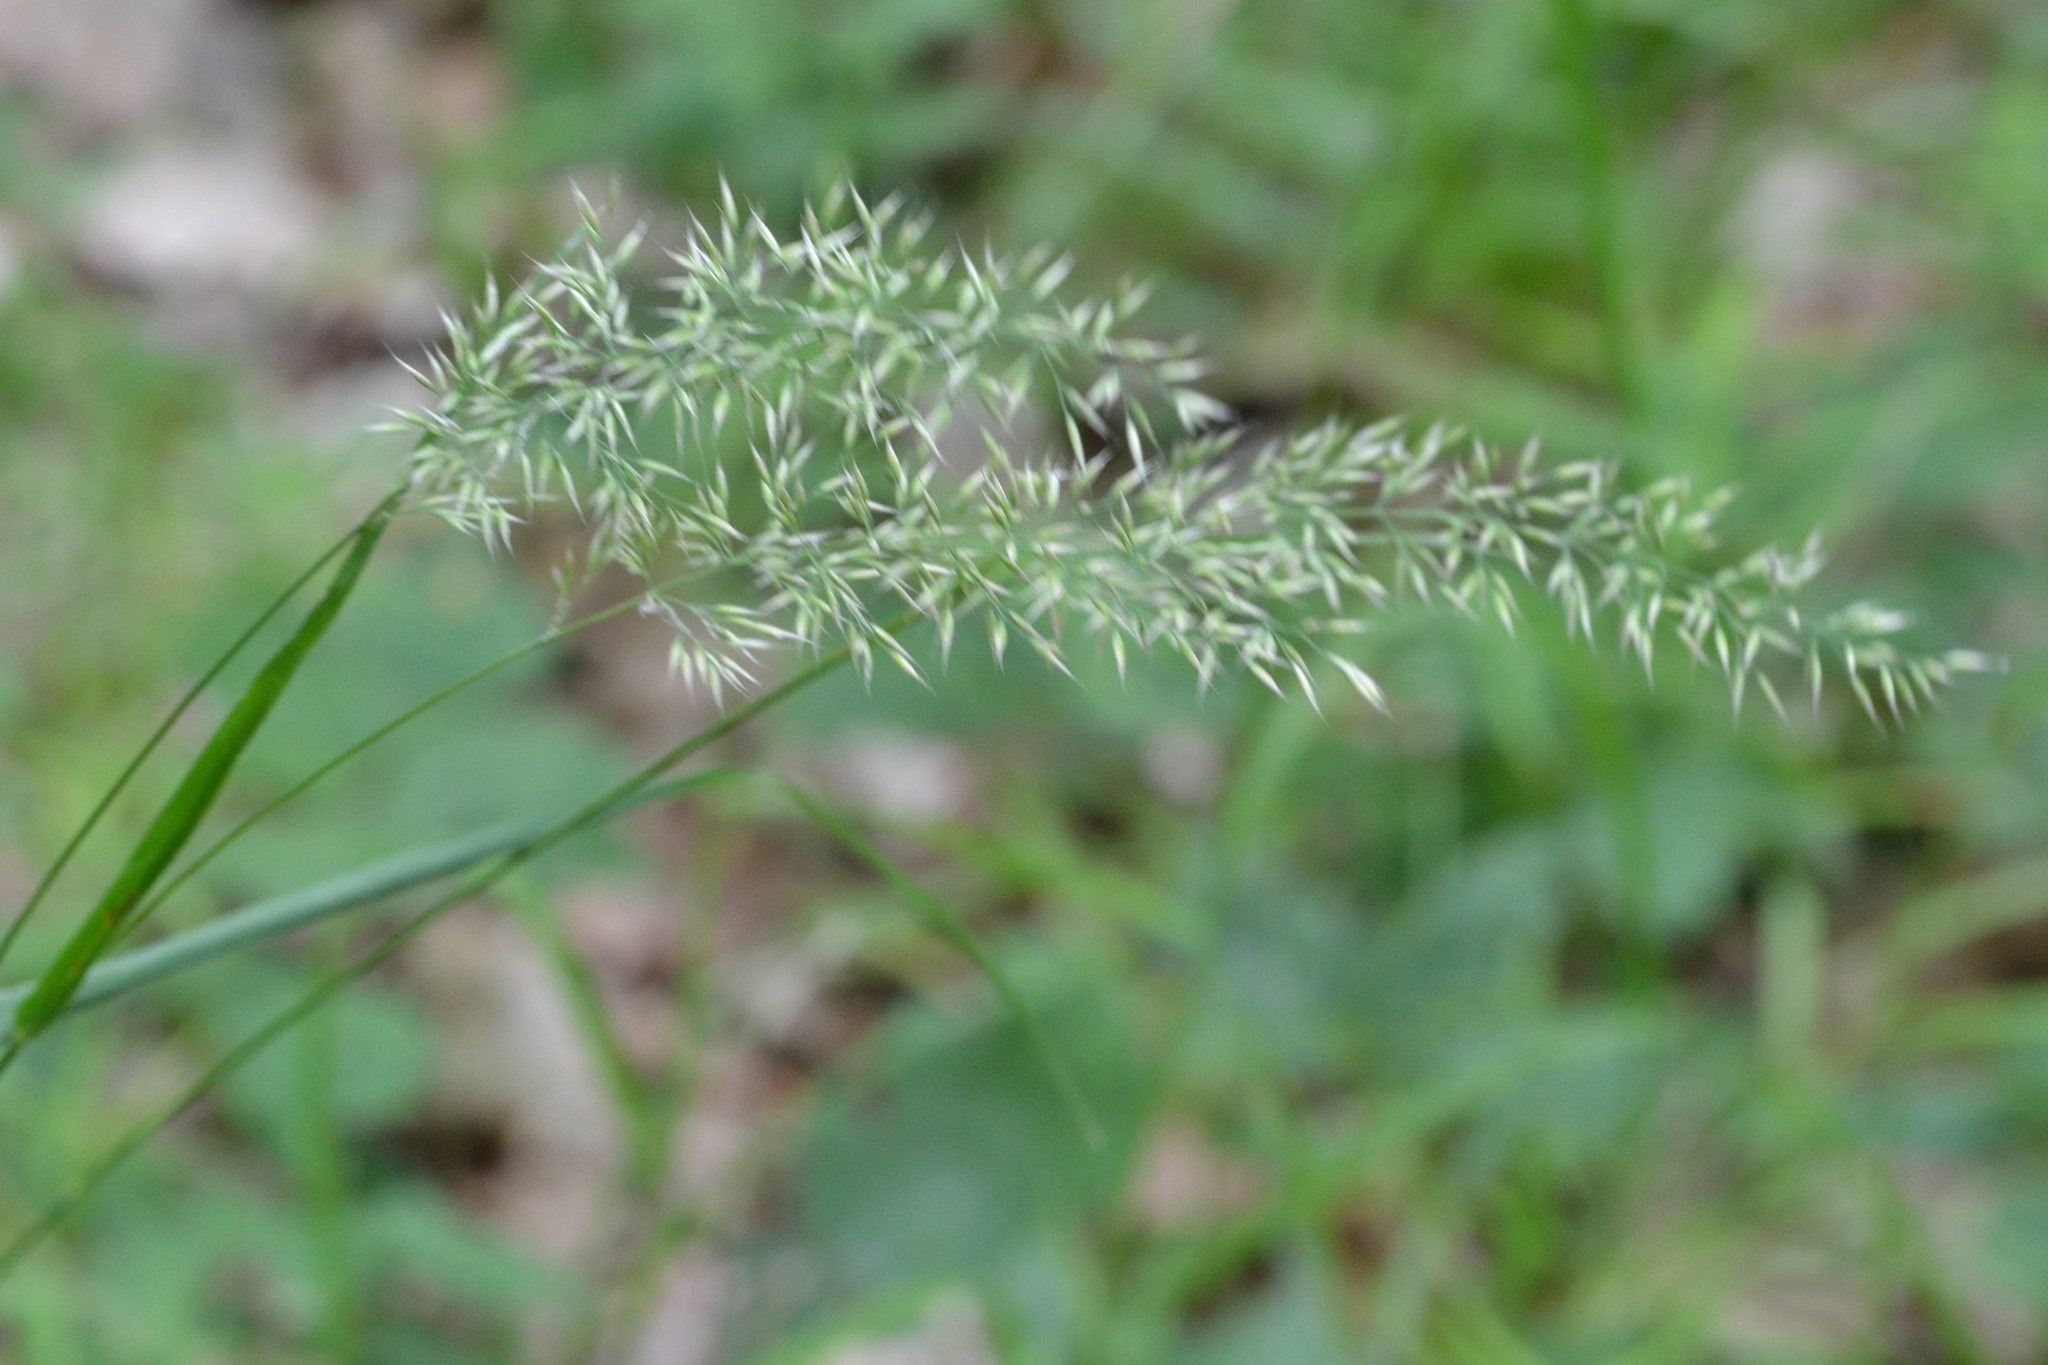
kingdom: Plantae
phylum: Tracheophyta
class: Liliopsida
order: Poales
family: Poaceae
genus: Calamagrostis
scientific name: Calamagrostis arundinacea
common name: Metskastik
